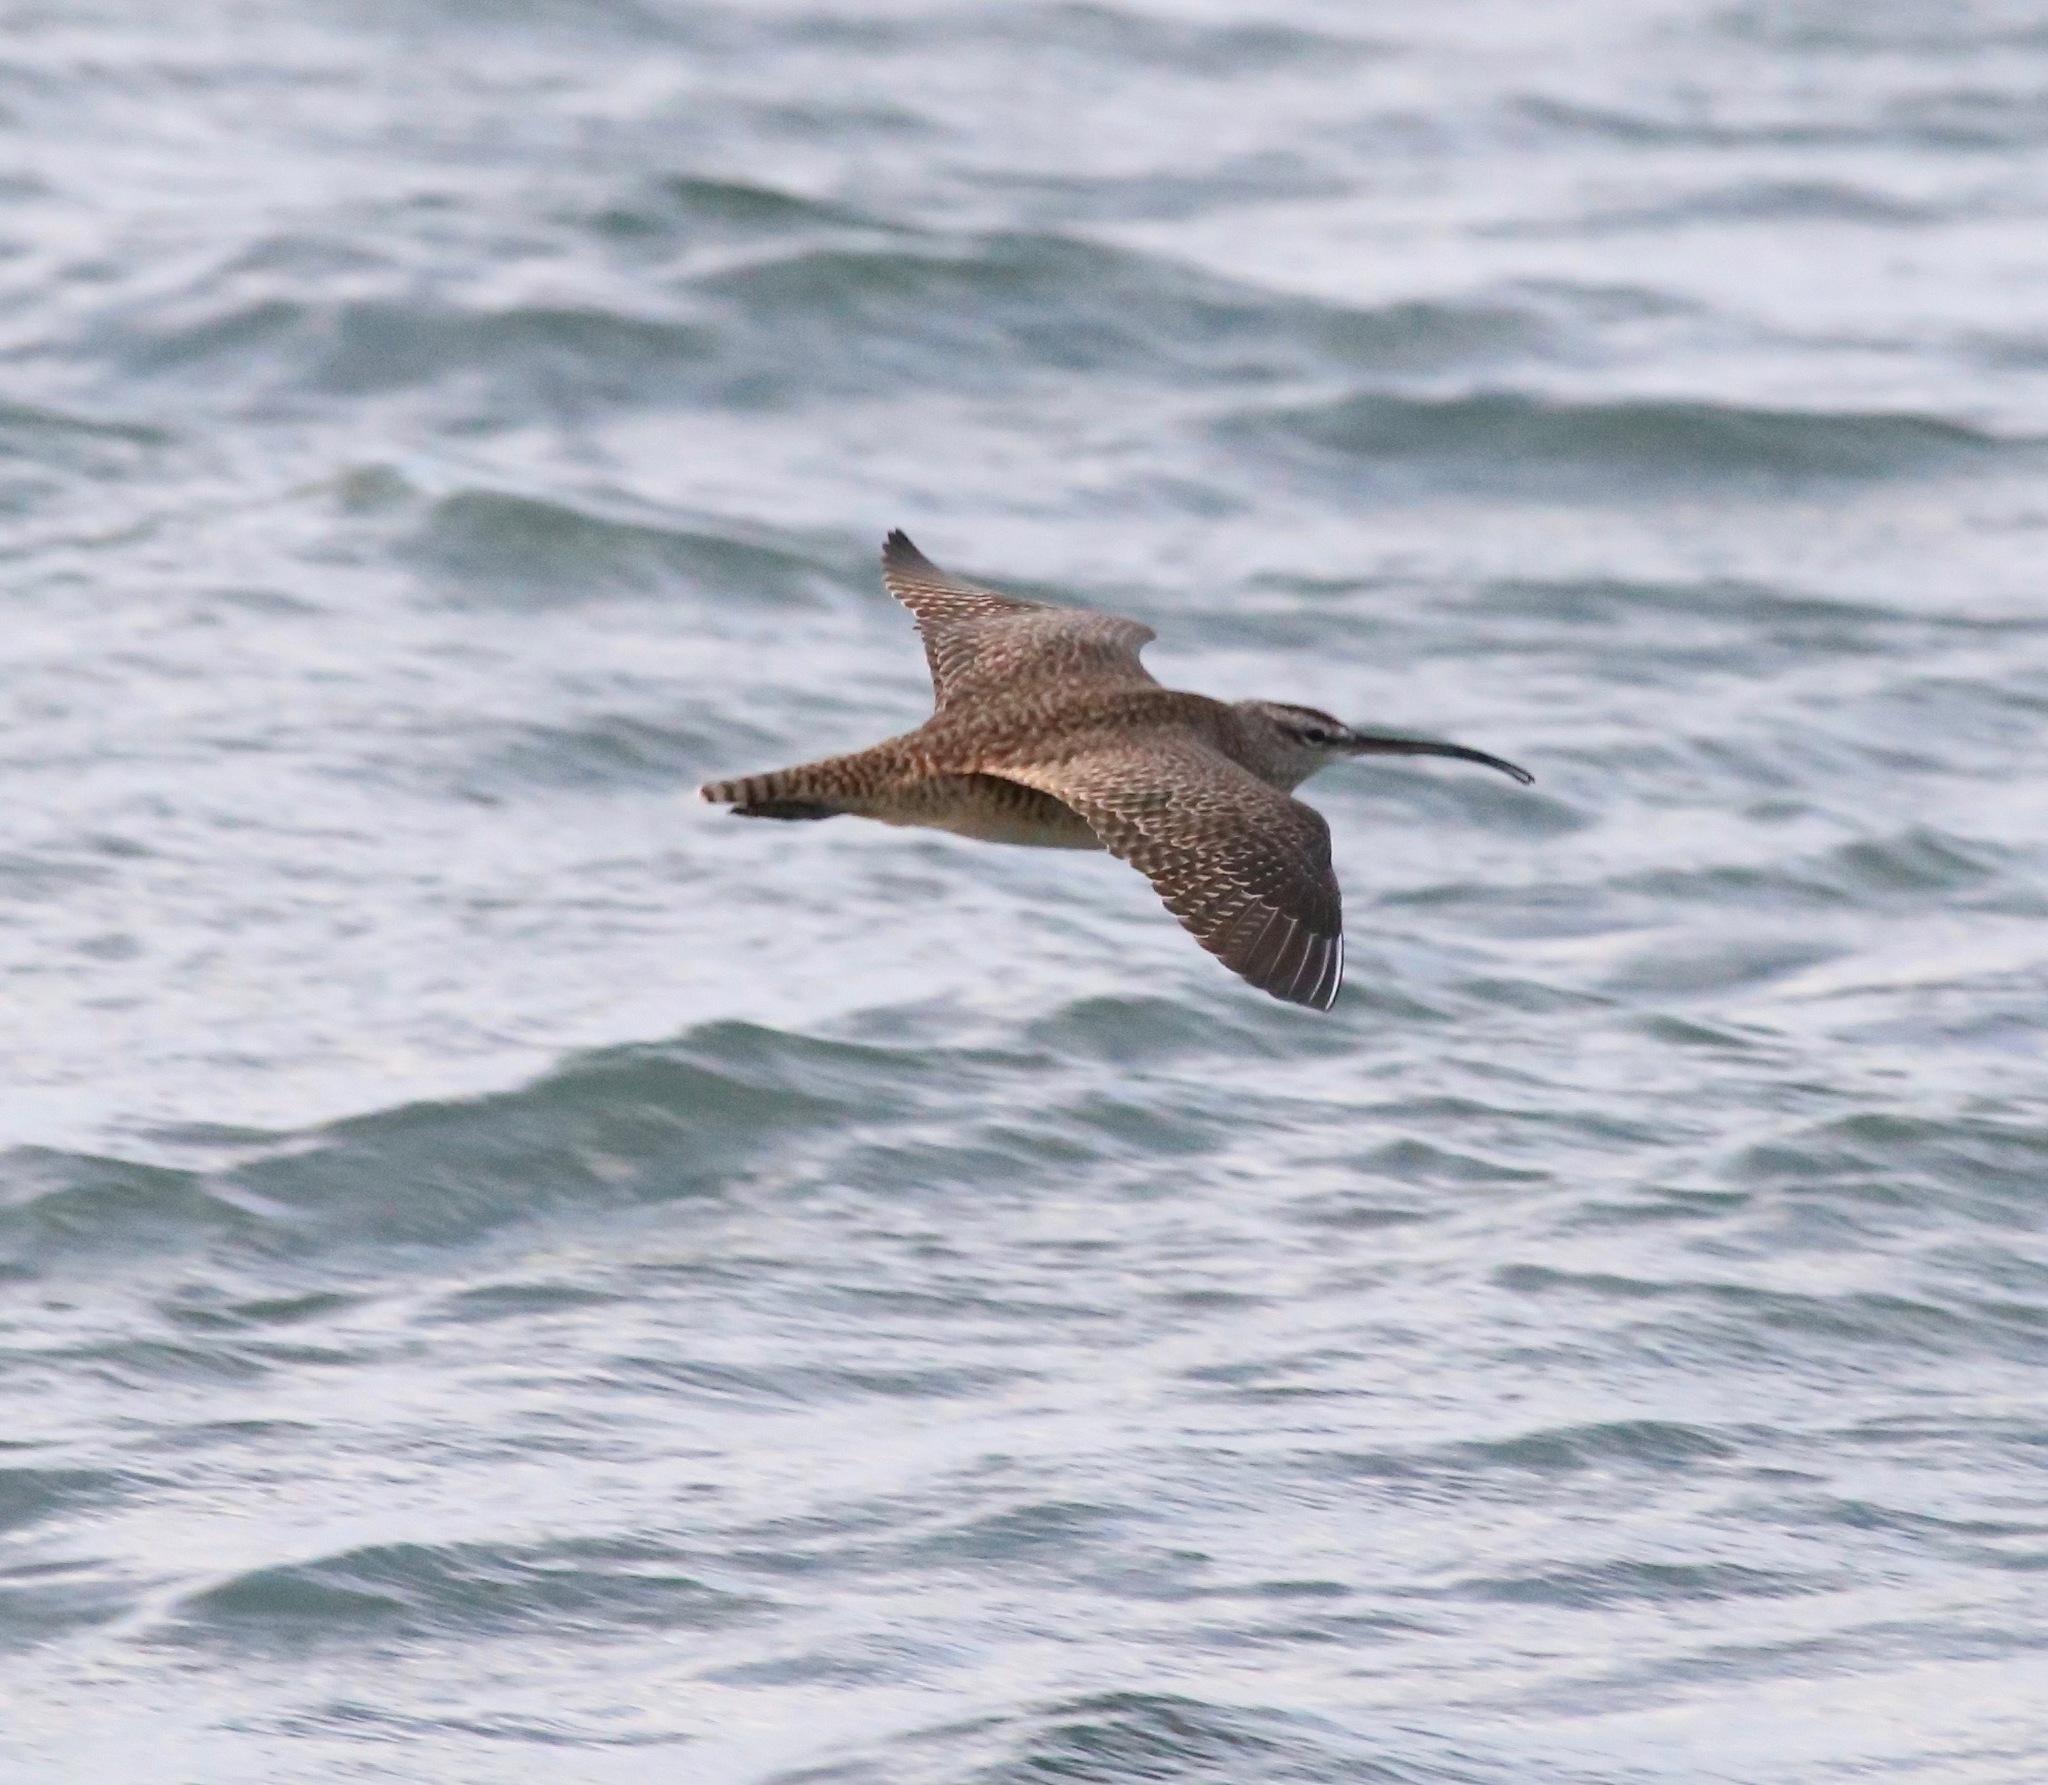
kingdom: Animalia
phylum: Chordata
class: Aves
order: Charadriiformes
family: Scolopacidae
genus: Numenius
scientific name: Numenius phaeopus
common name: Whimbrel
